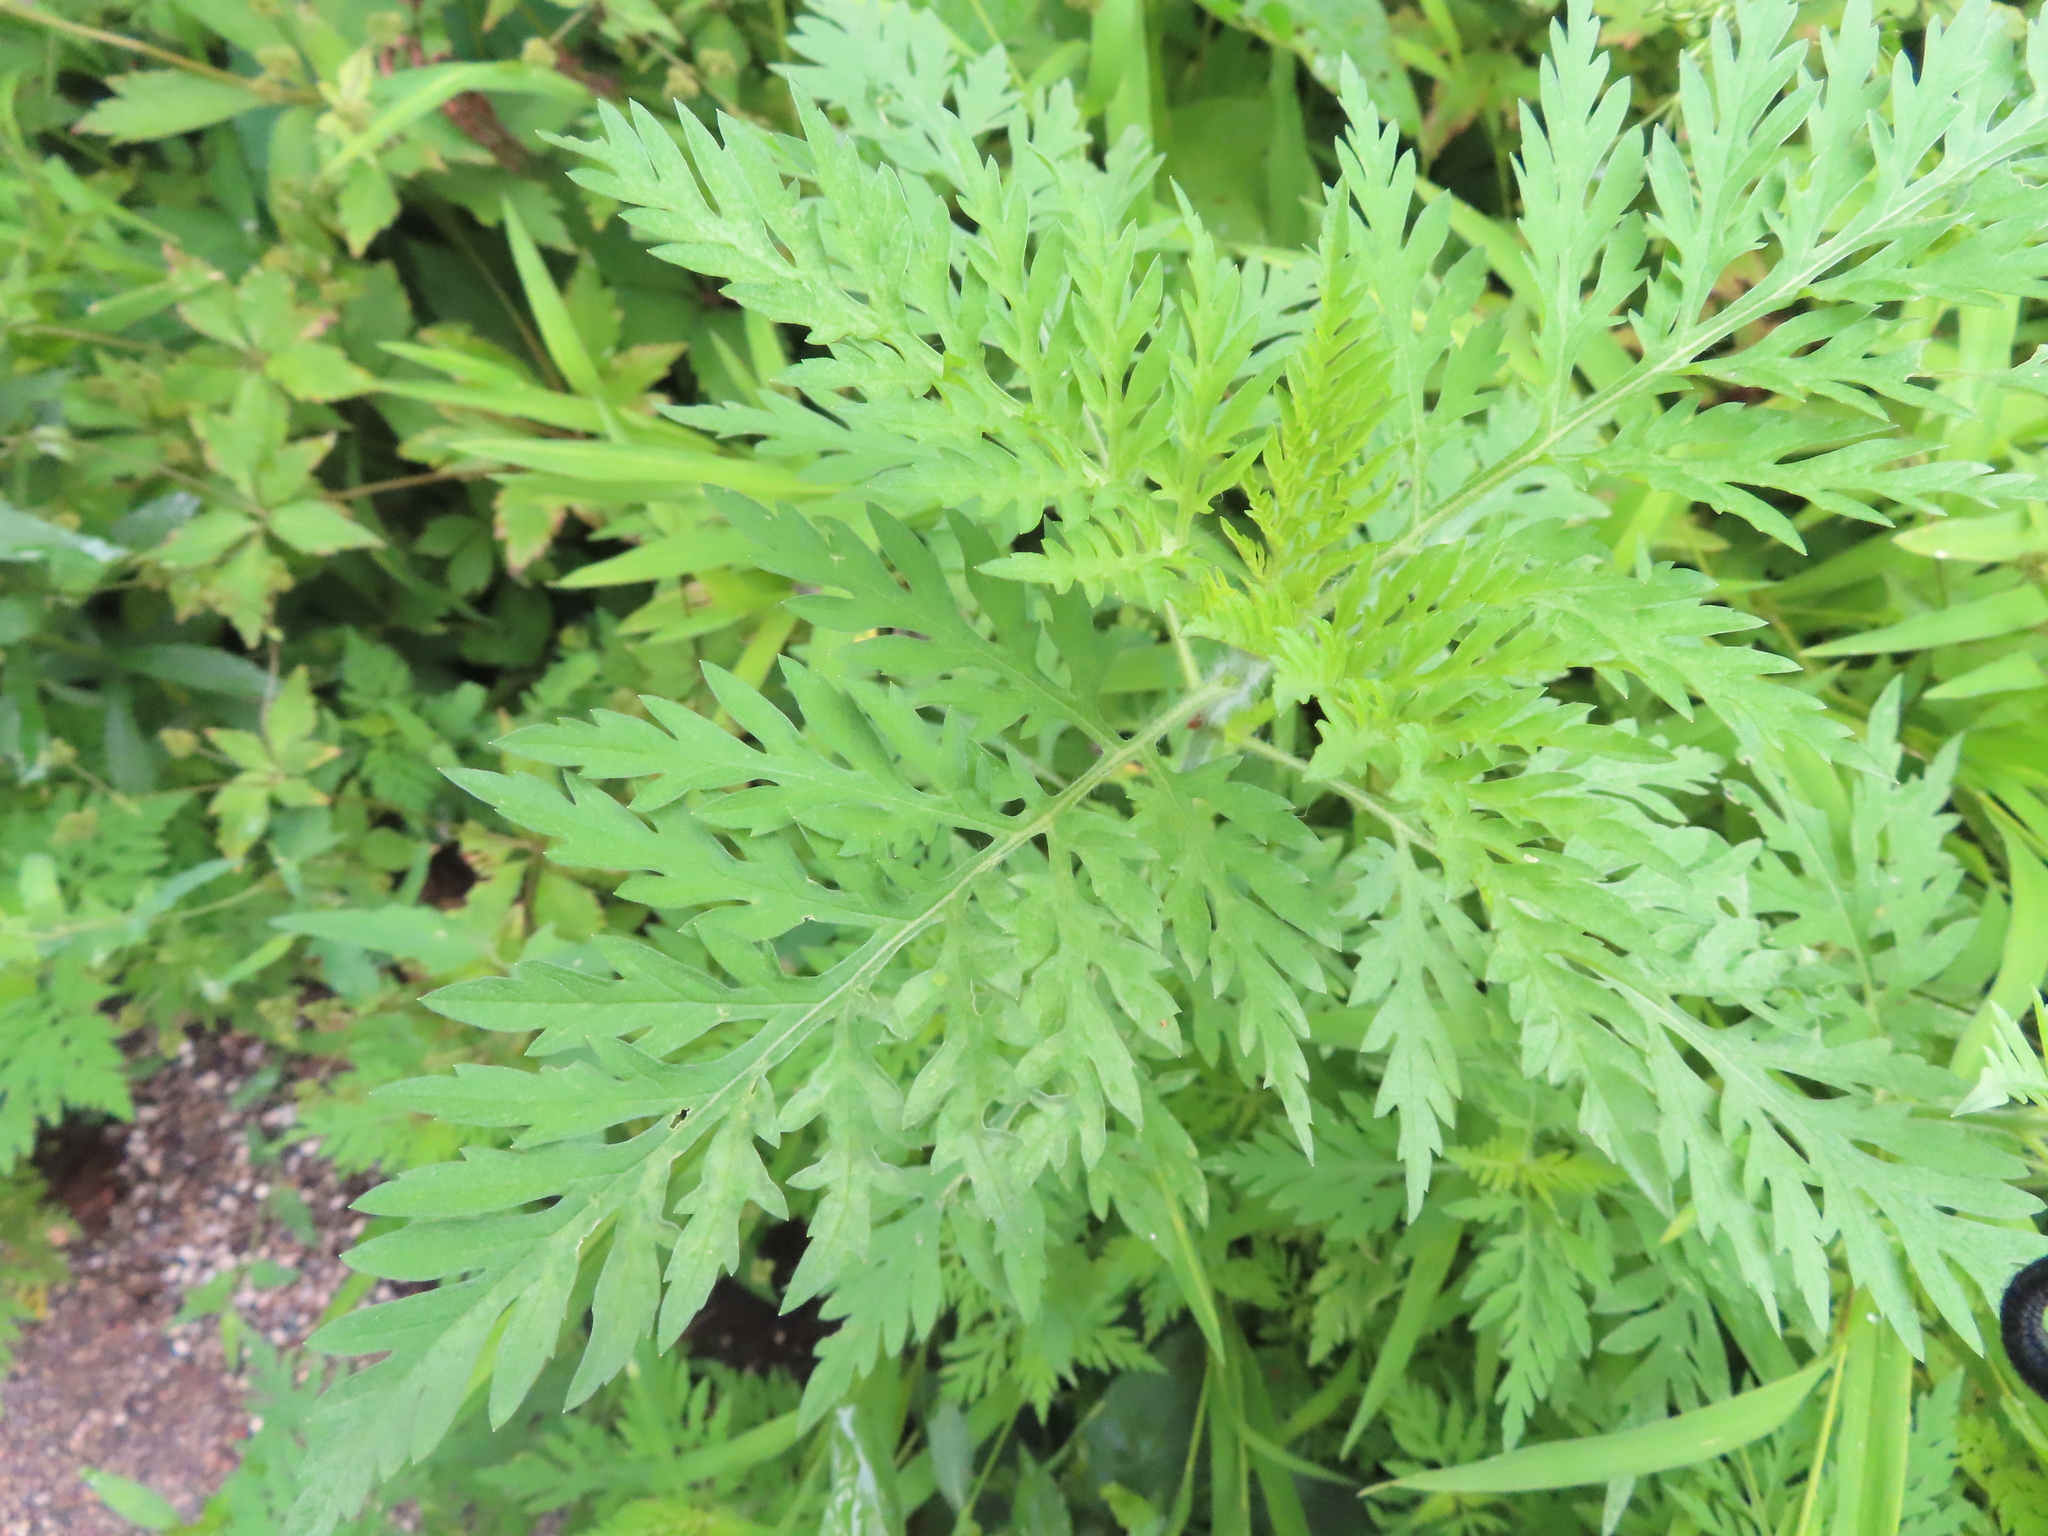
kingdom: Plantae
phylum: Tracheophyta
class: Magnoliopsida
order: Asterales
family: Asteraceae
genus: Ambrosia
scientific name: Ambrosia artemisiifolia
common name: Annual ragweed
